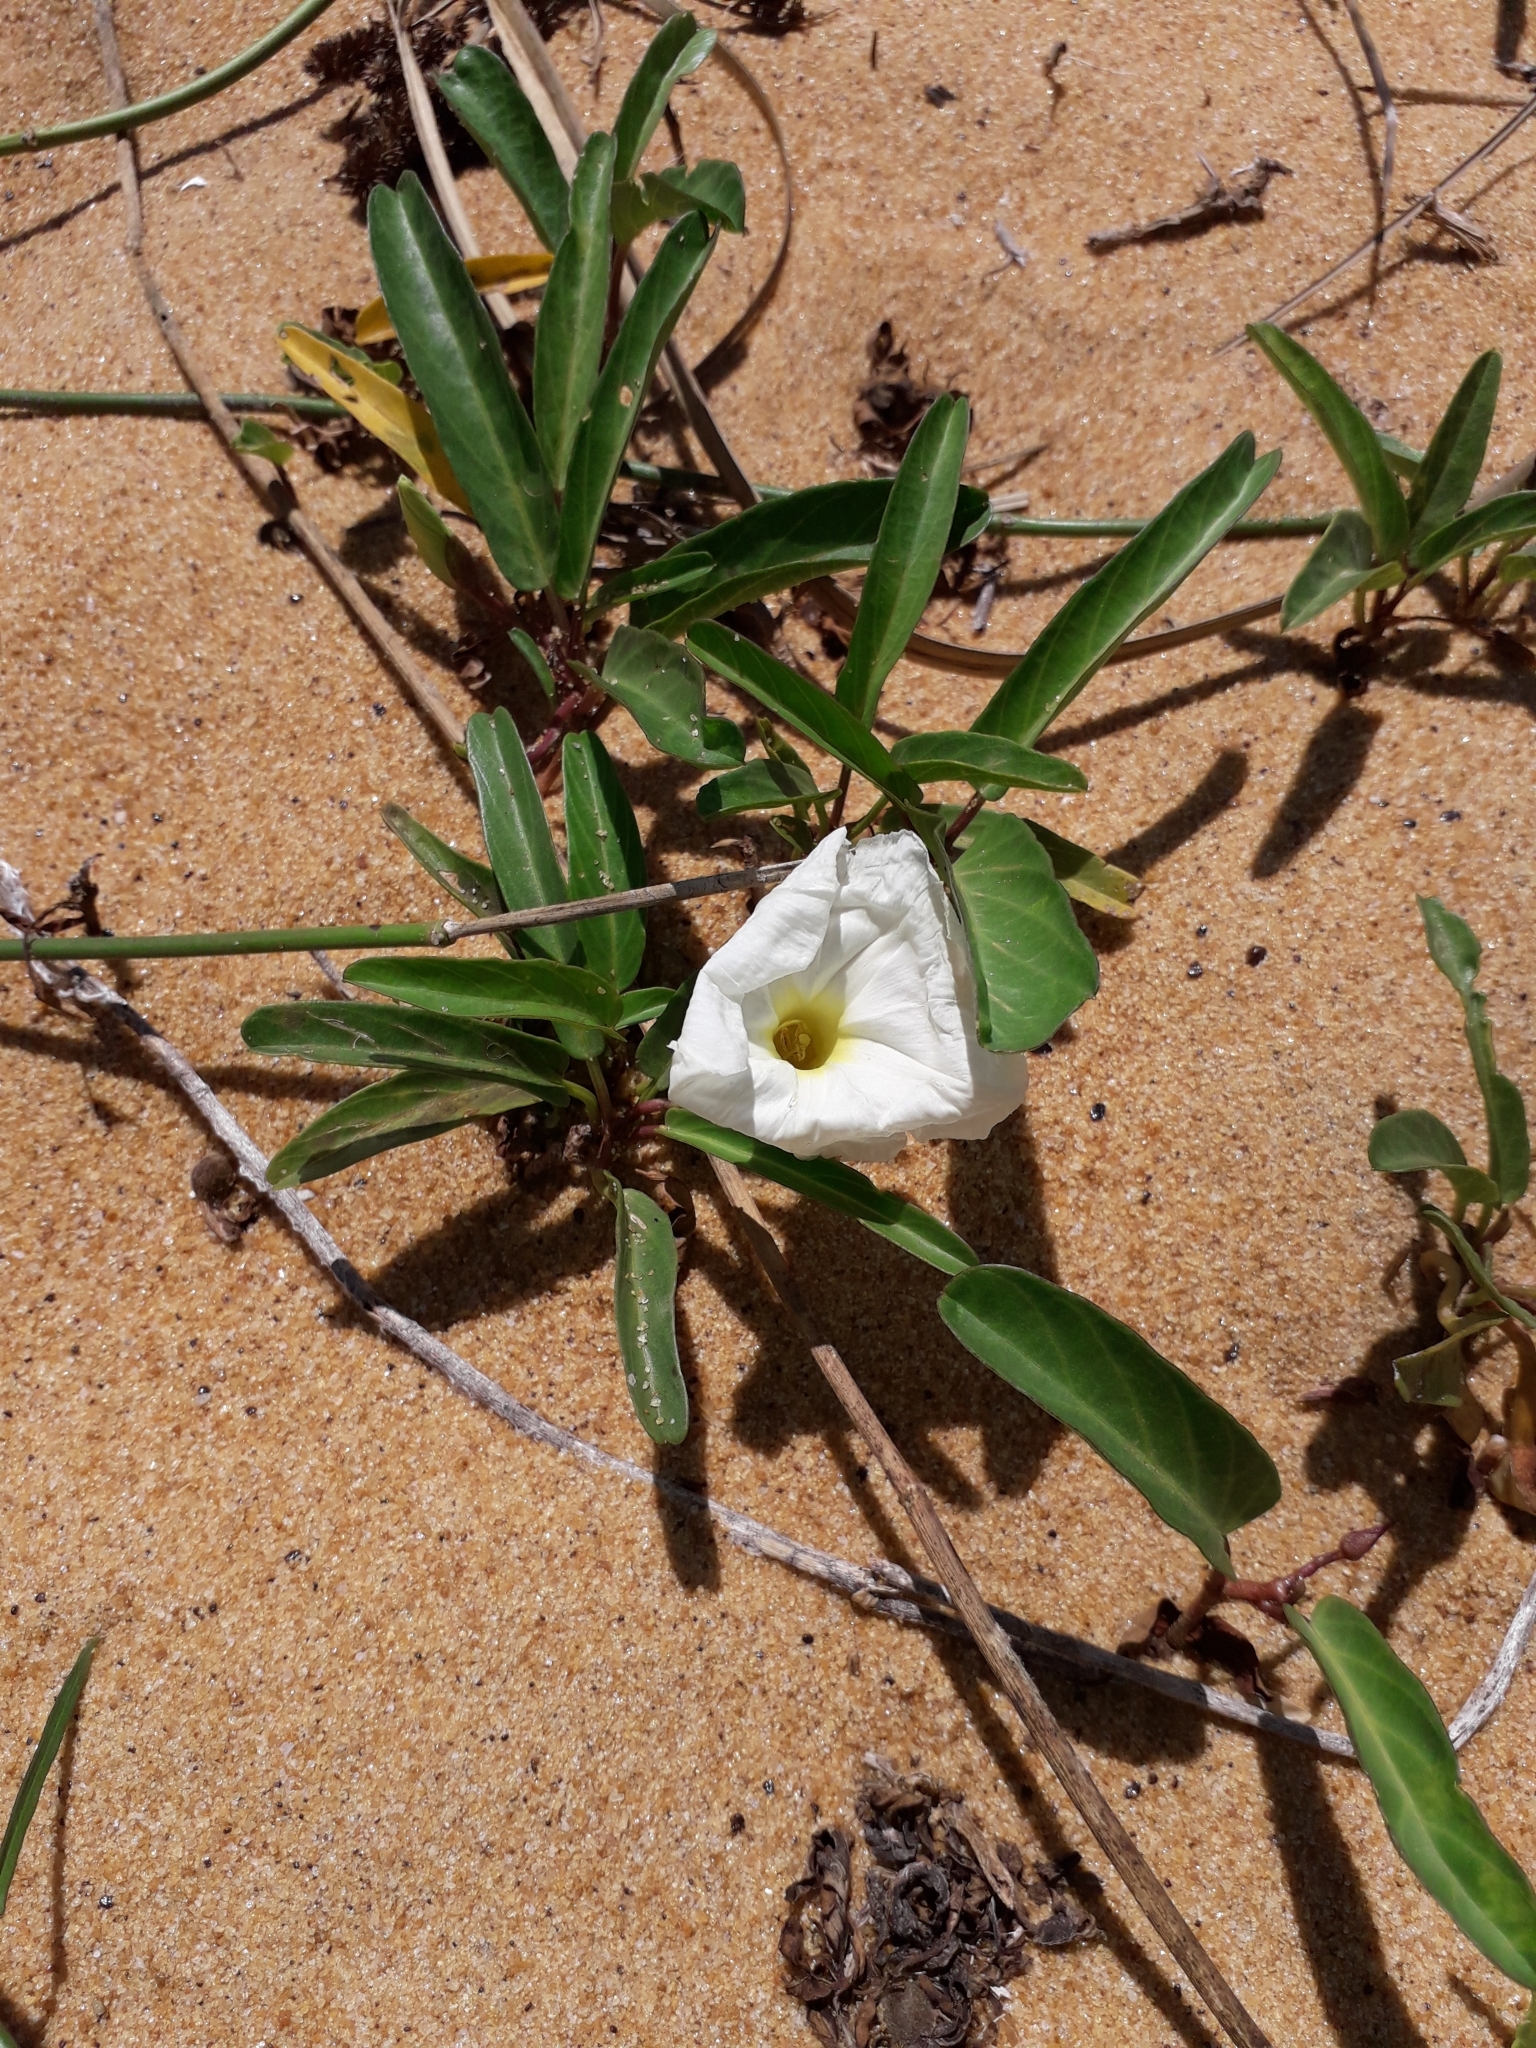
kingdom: Plantae
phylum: Tracheophyta
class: Magnoliopsida
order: Solanales
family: Convolvulaceae
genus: Ipomoea
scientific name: Ipomoea imperati
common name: Fiddle-leaf morning-glory
